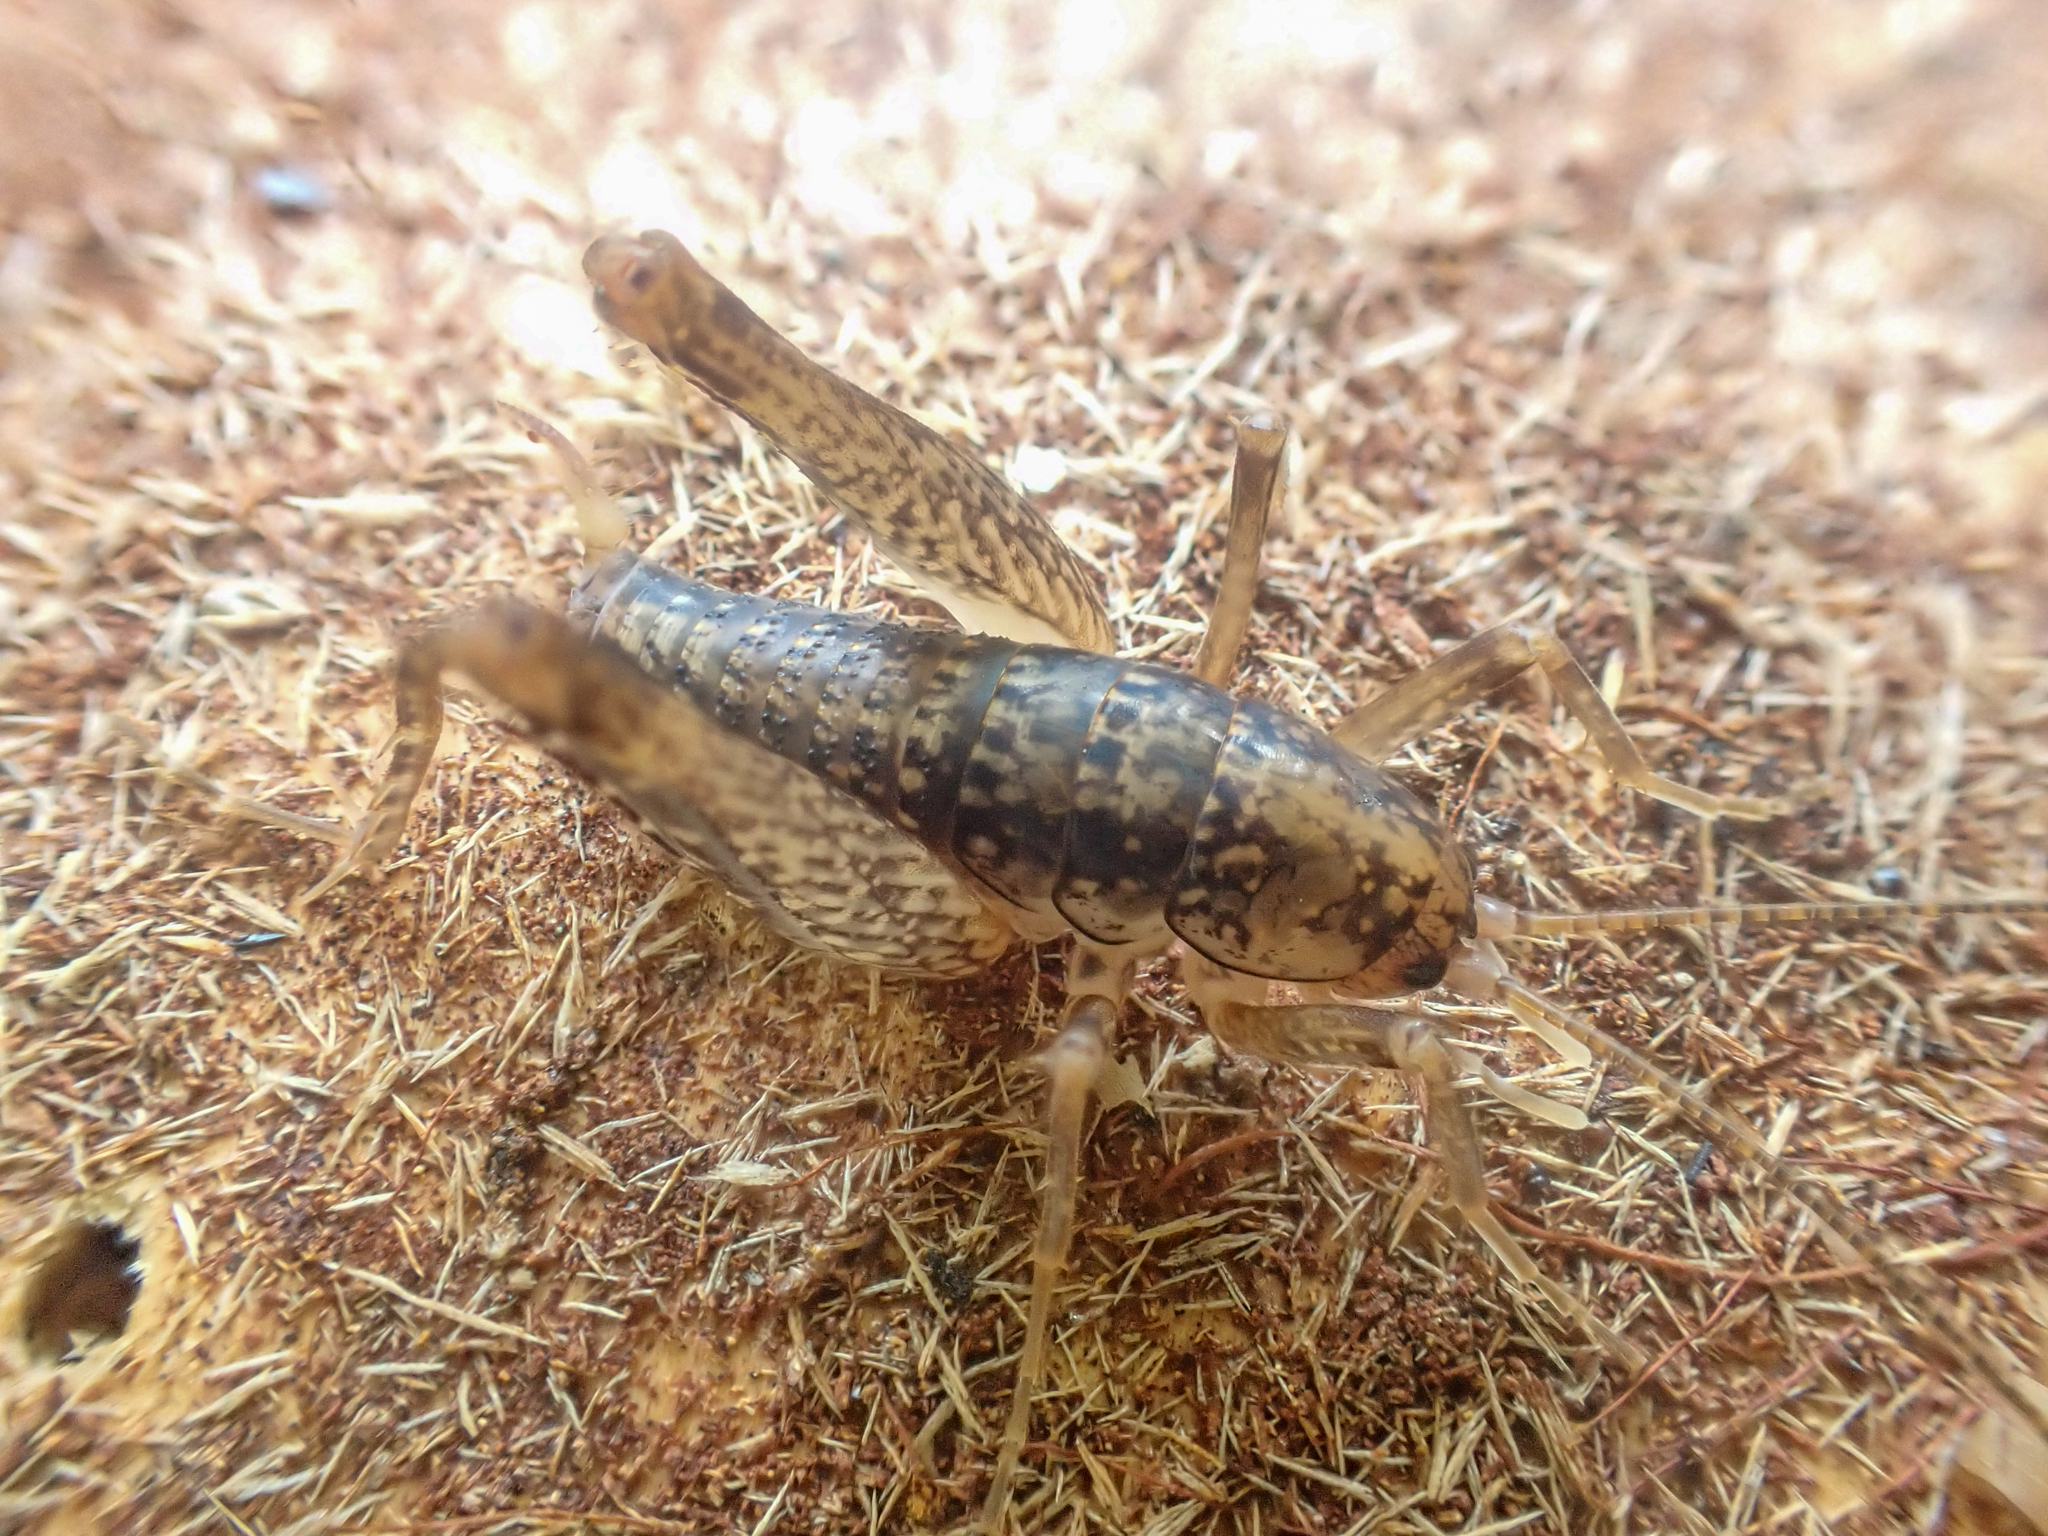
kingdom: Animalia
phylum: Arthropoda
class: Insecta
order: Orthoptera
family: Rhaphidophoridae
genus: Pristoceuthophilus
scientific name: Pristoceuthophilus cercalis
